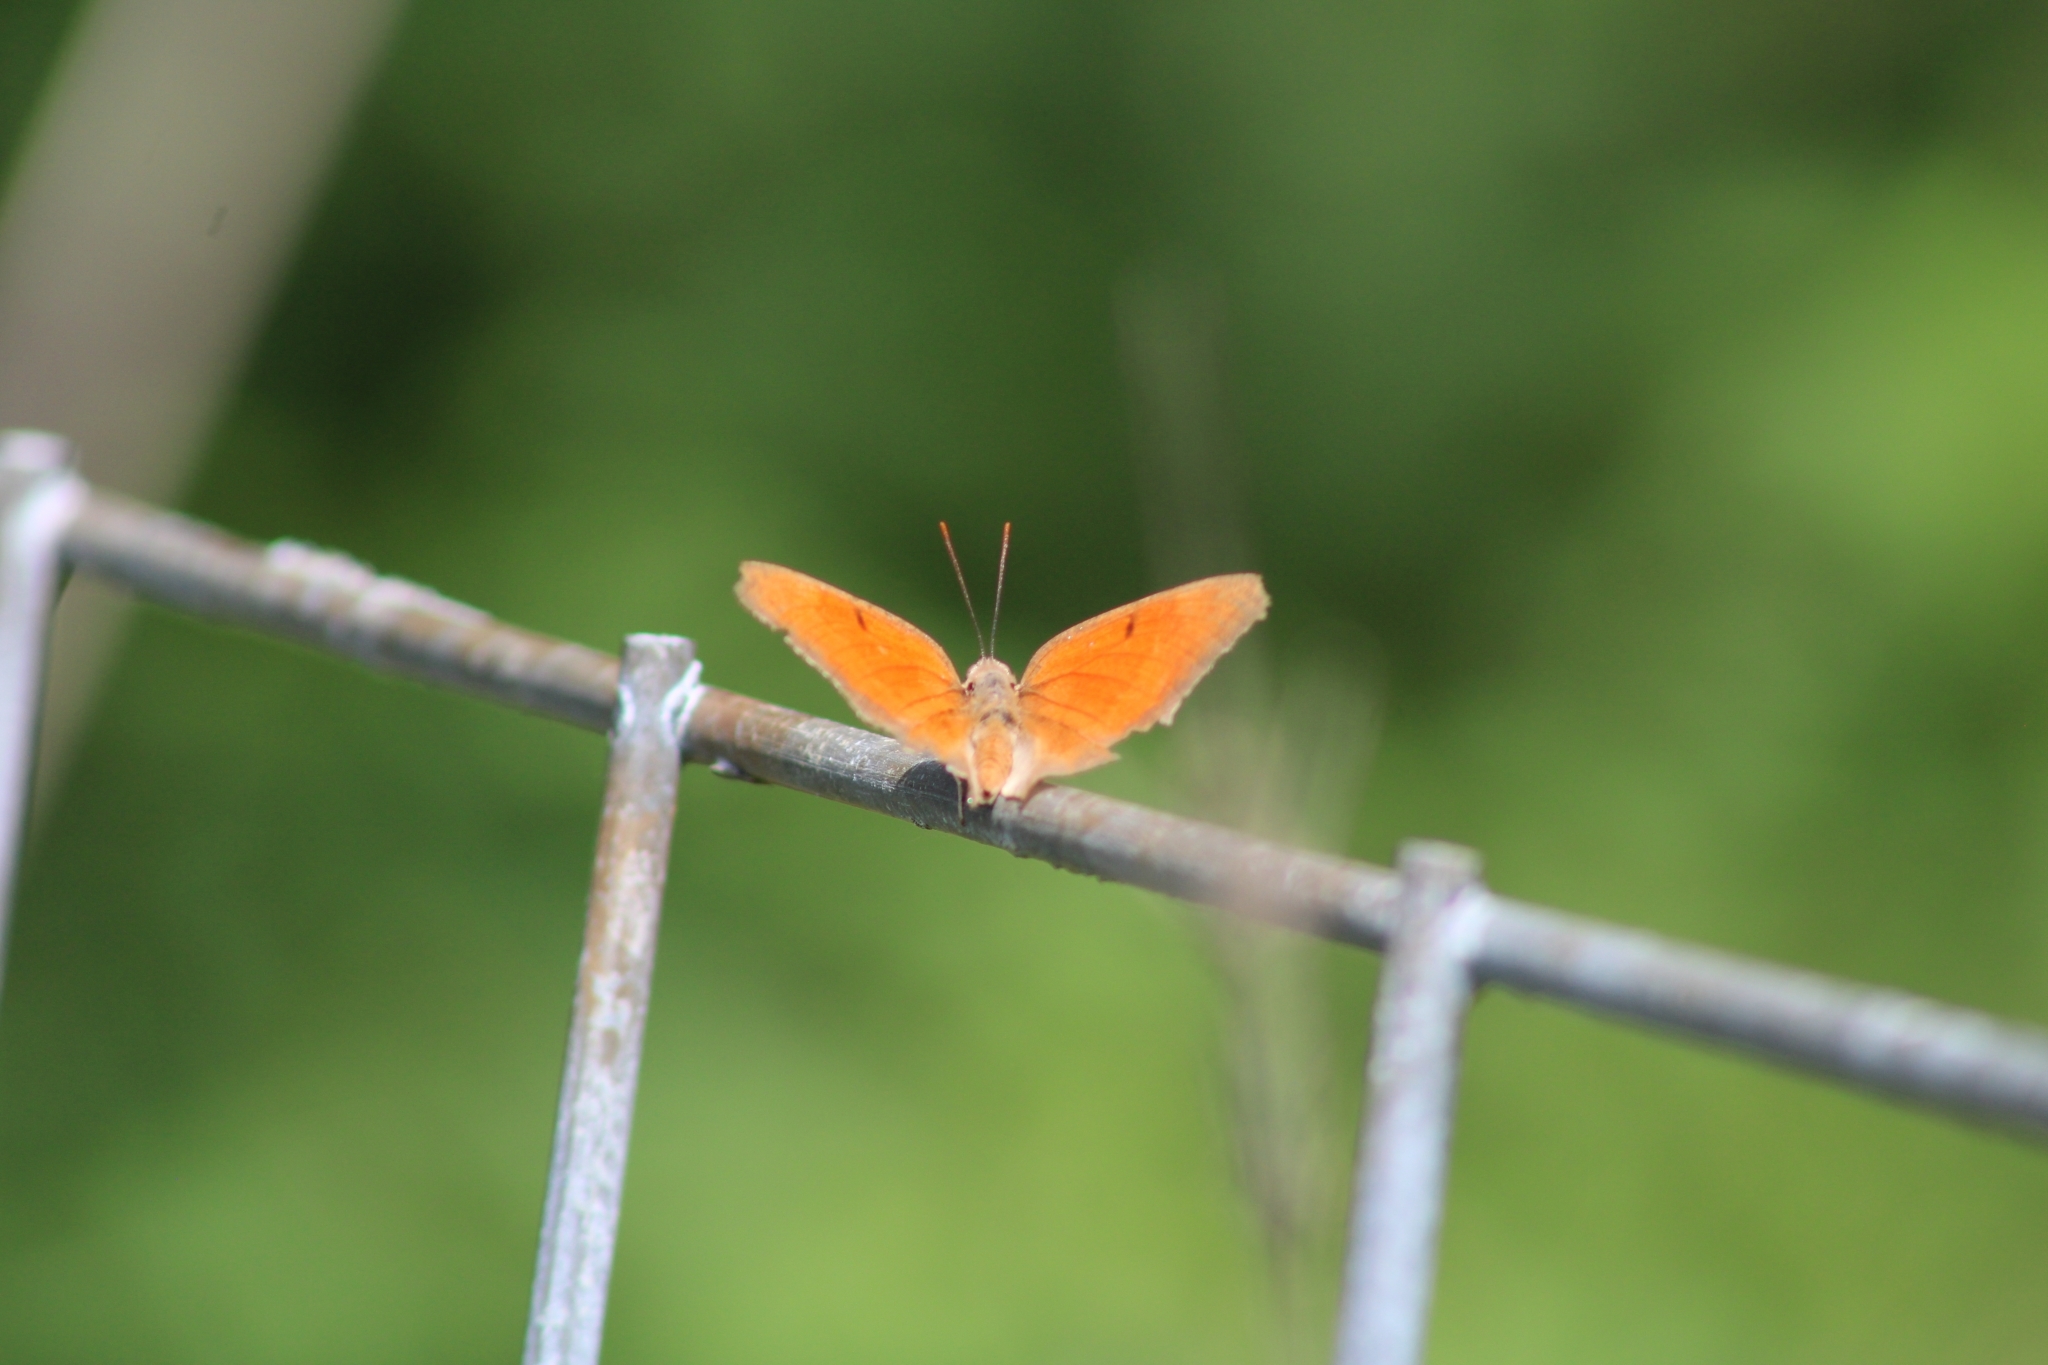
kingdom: Animalia
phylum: Arthropoda
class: Insecta
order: Lepidoptera
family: Nymphalidae
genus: Anaea
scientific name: Anaea andria
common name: Goatweed leafwing
